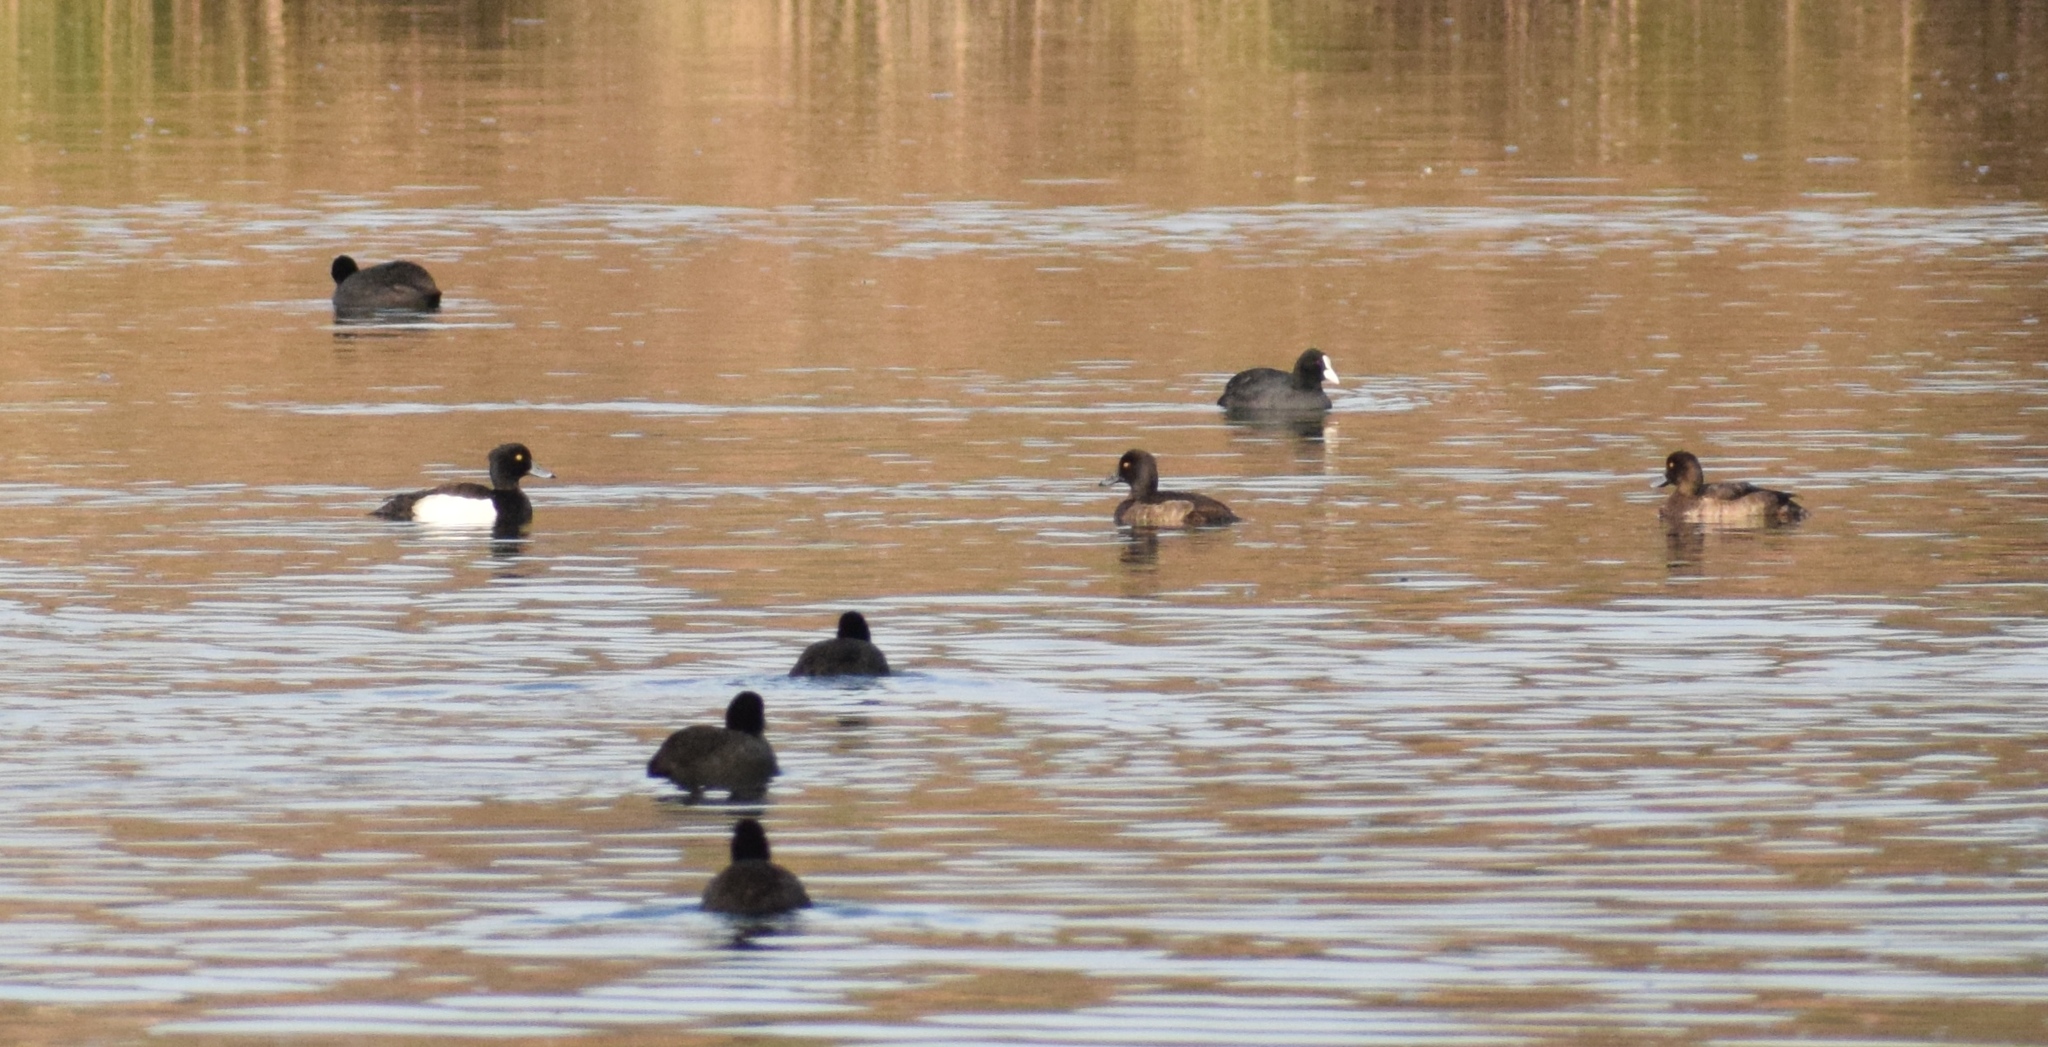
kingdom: Animalia
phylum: Chordata
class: Aves
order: Gruiformes
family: Rallidae
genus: Fulica
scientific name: Fulica atra
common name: Eurasian coot
